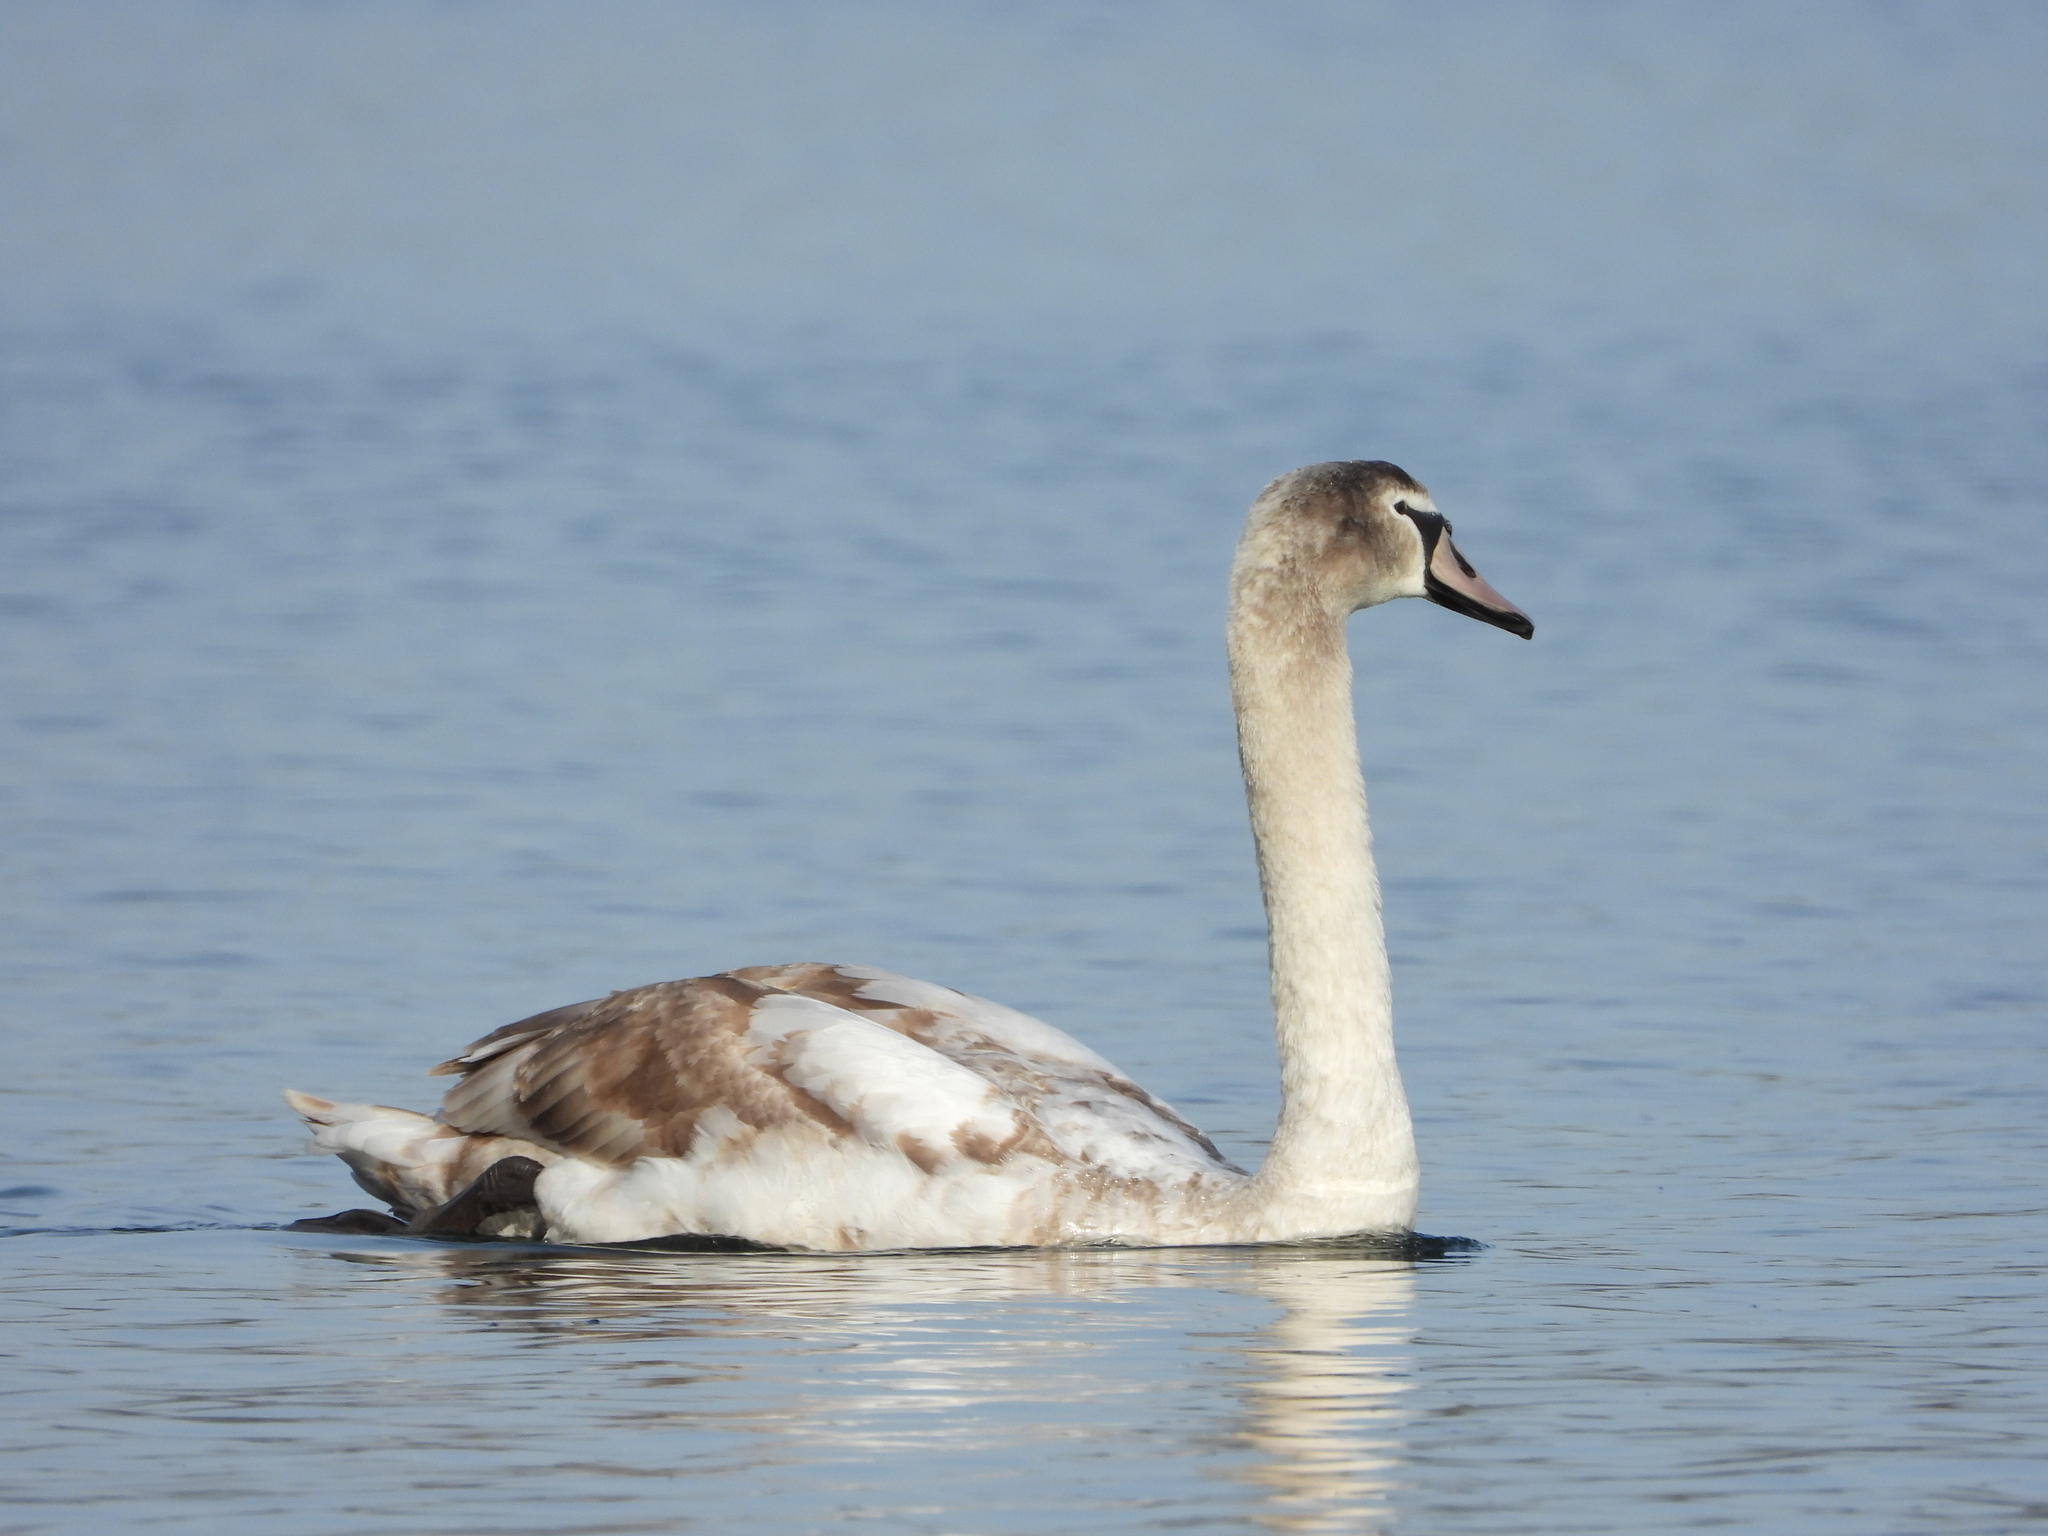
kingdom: Animalia
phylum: Chordata
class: Aves
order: Anseriformes
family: Anatidae
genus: Cygnus
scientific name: Cygnus olor
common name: Mute swan
